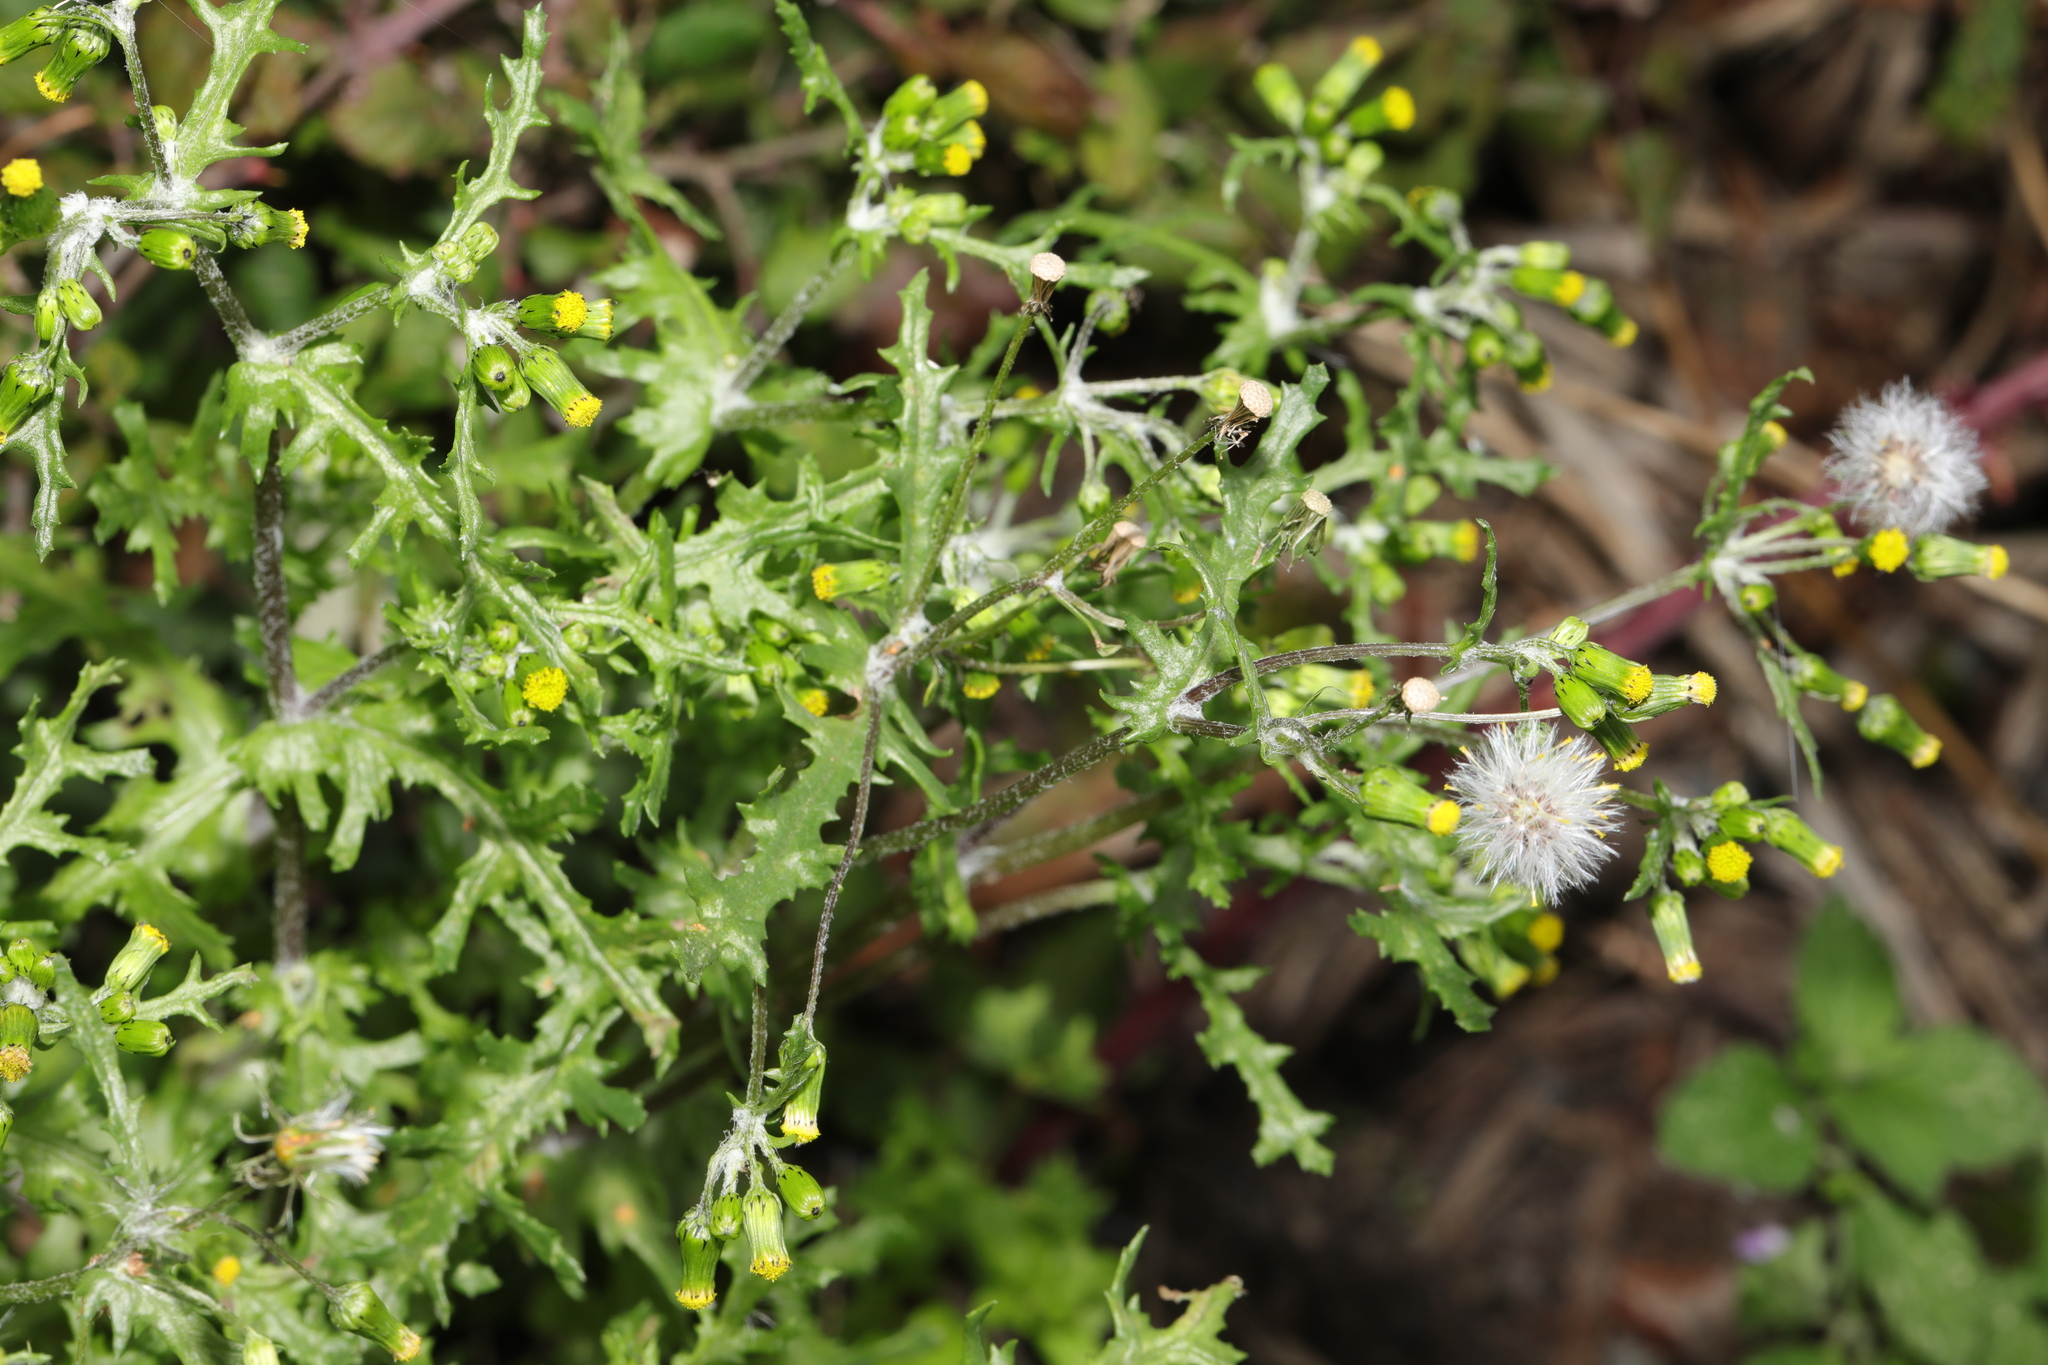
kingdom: Plantae
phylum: Tracheophyta
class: Magnoliopsida
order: Asterales
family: Asteraceae
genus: Senecio
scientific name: Senecio vulgaris
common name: Old-man-in-the-spring
